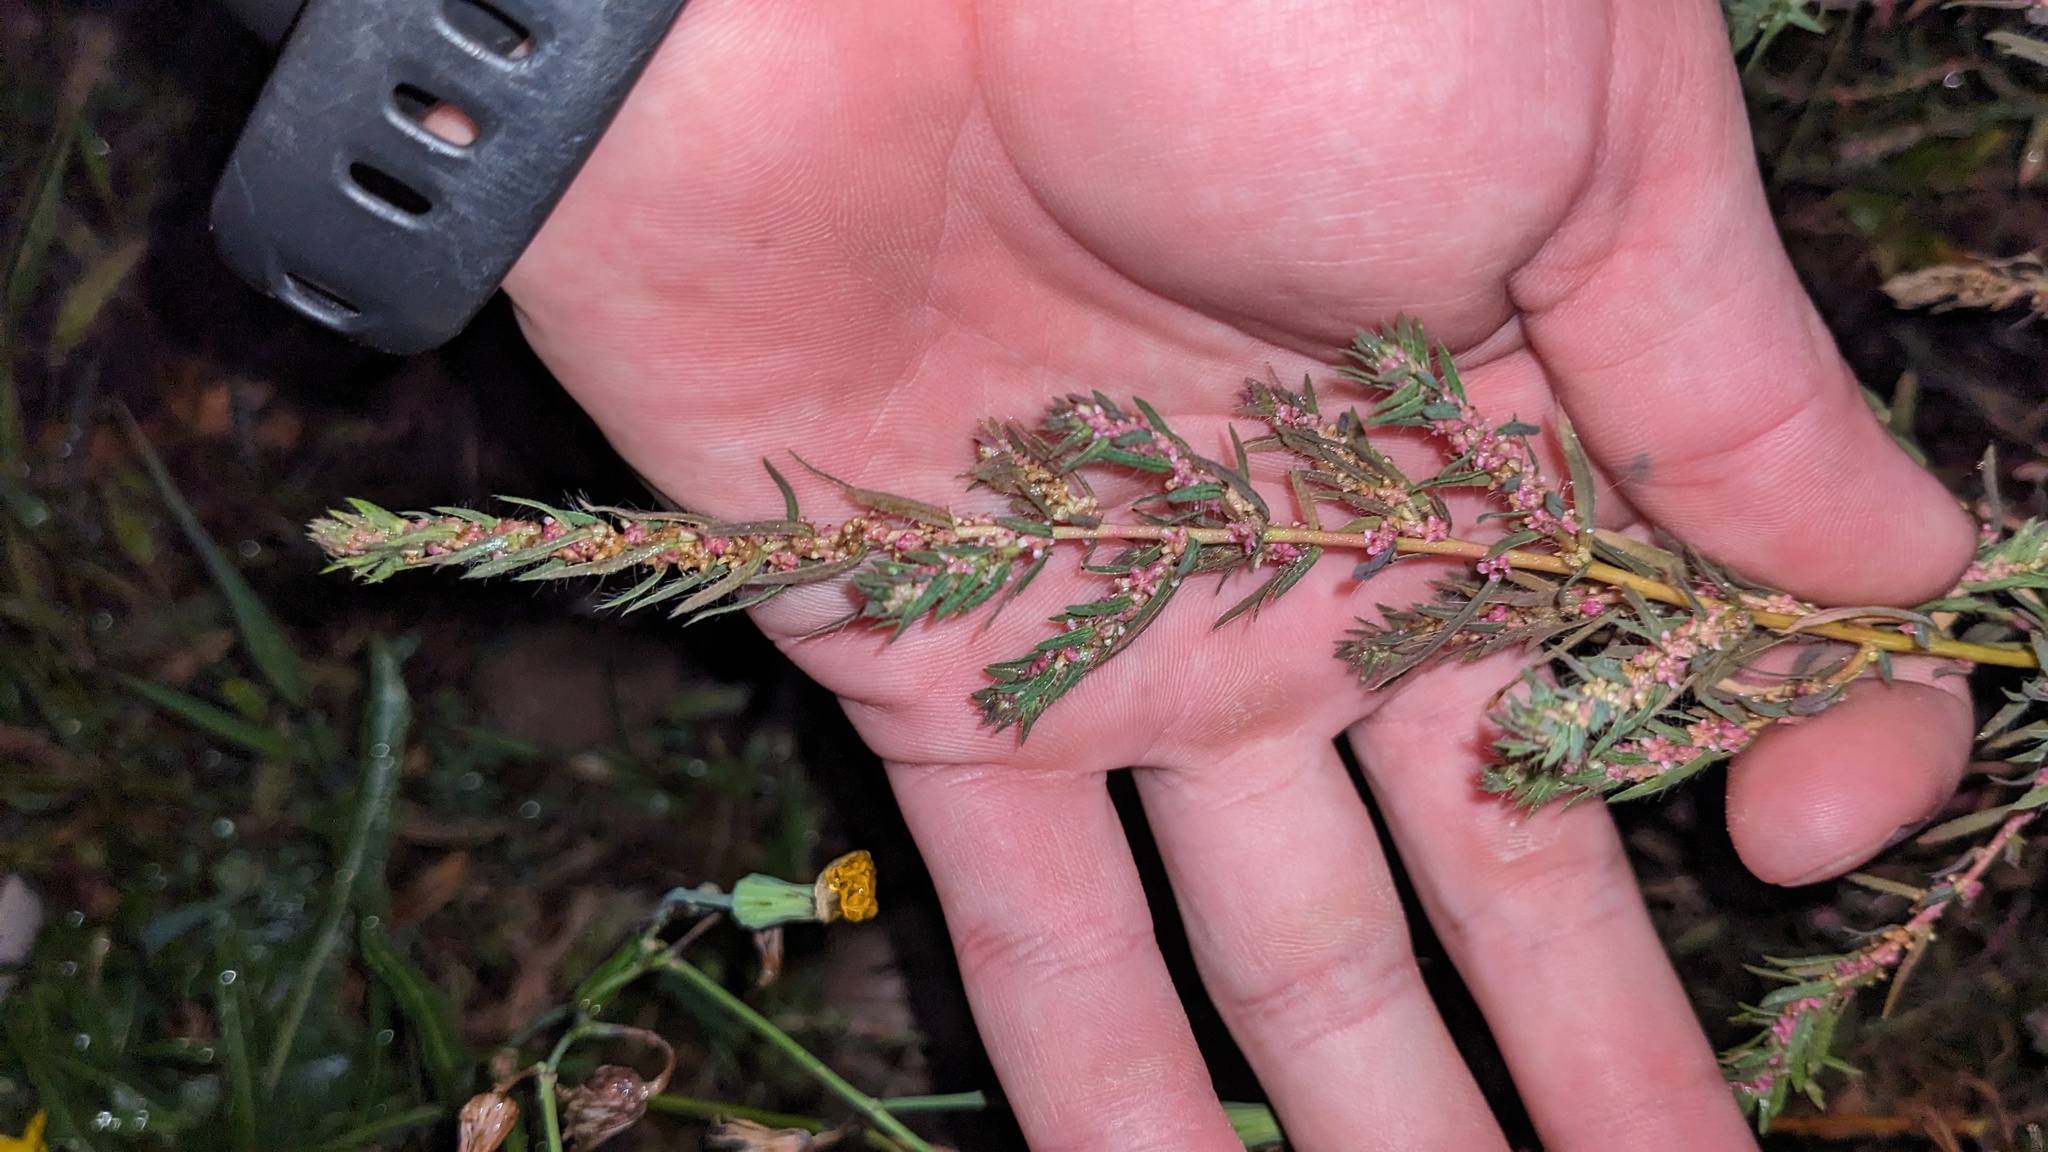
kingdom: Plantae
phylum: Tracheophyta
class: Magnoliopsida
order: Caryophyllales
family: Amaranthaceae
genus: Bassia
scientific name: Bassia scoparia
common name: Belvedere
